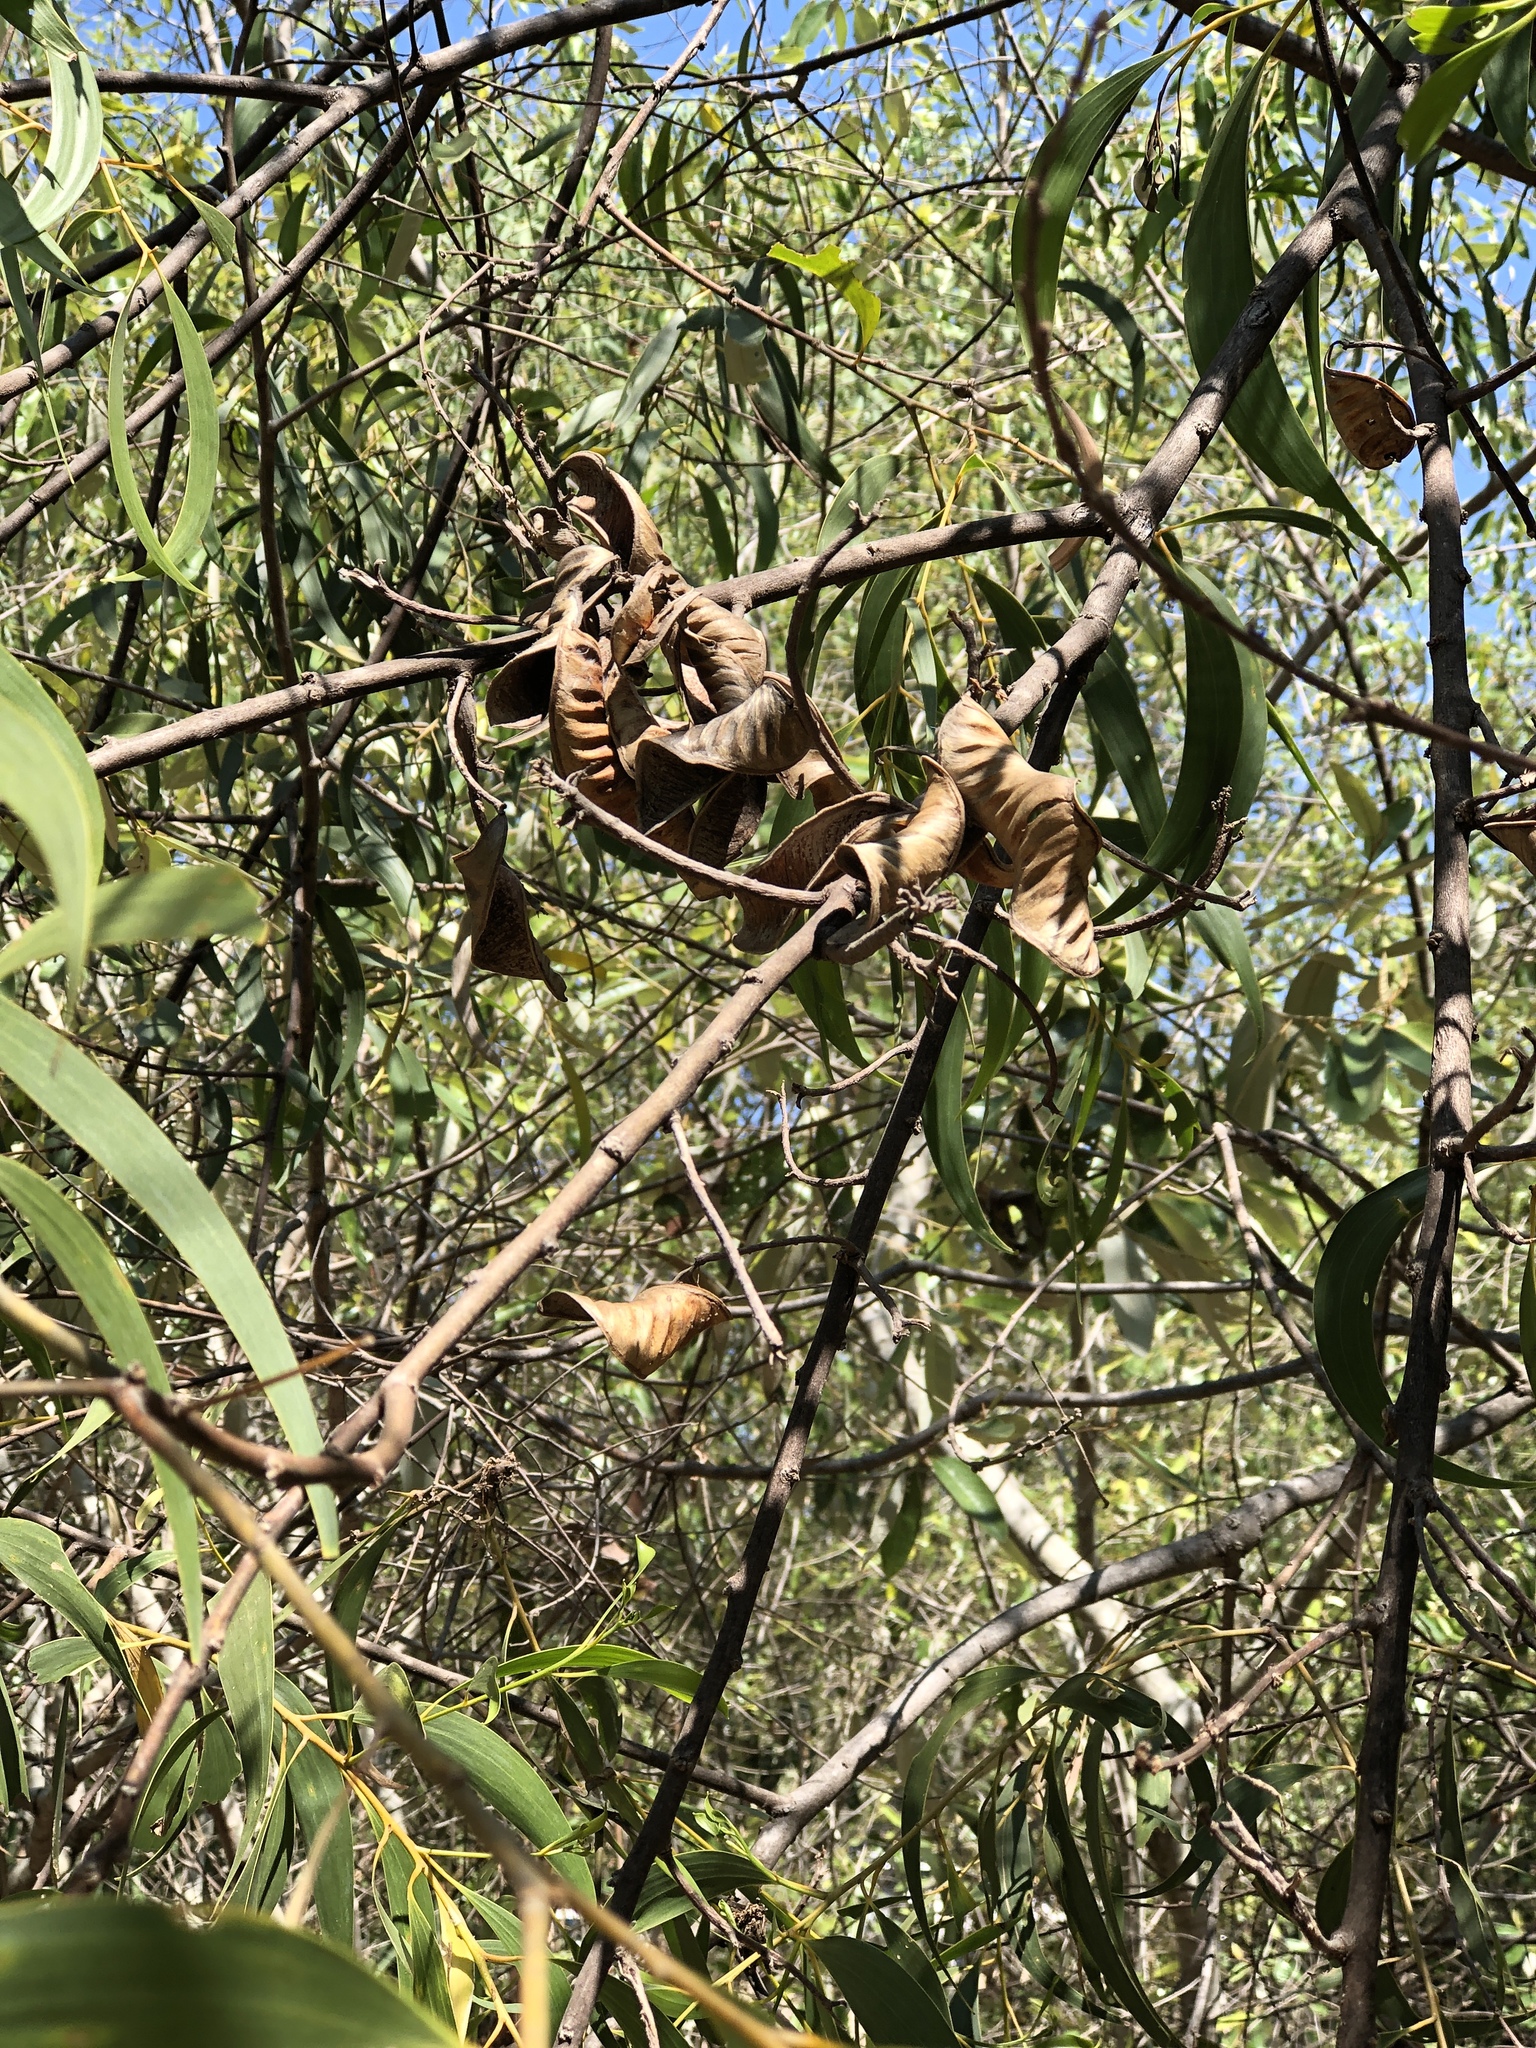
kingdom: Plantae
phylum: Tracheophyta
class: Magnoliopsida
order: Fabales
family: Fabaceae
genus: Acacia
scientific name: Acacia crassicarpa
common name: Northern wattle
